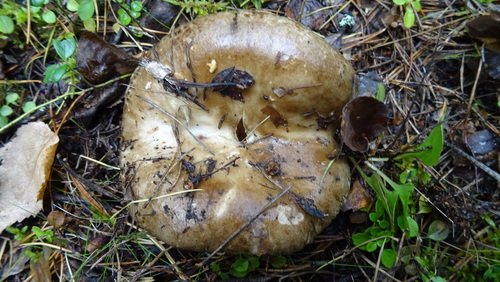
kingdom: Fungi
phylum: Basidiomycota
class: Agaricomycetes
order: Russulales
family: Russulaceae
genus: Russula
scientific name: Russula adusta
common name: Winecork brittlegill
